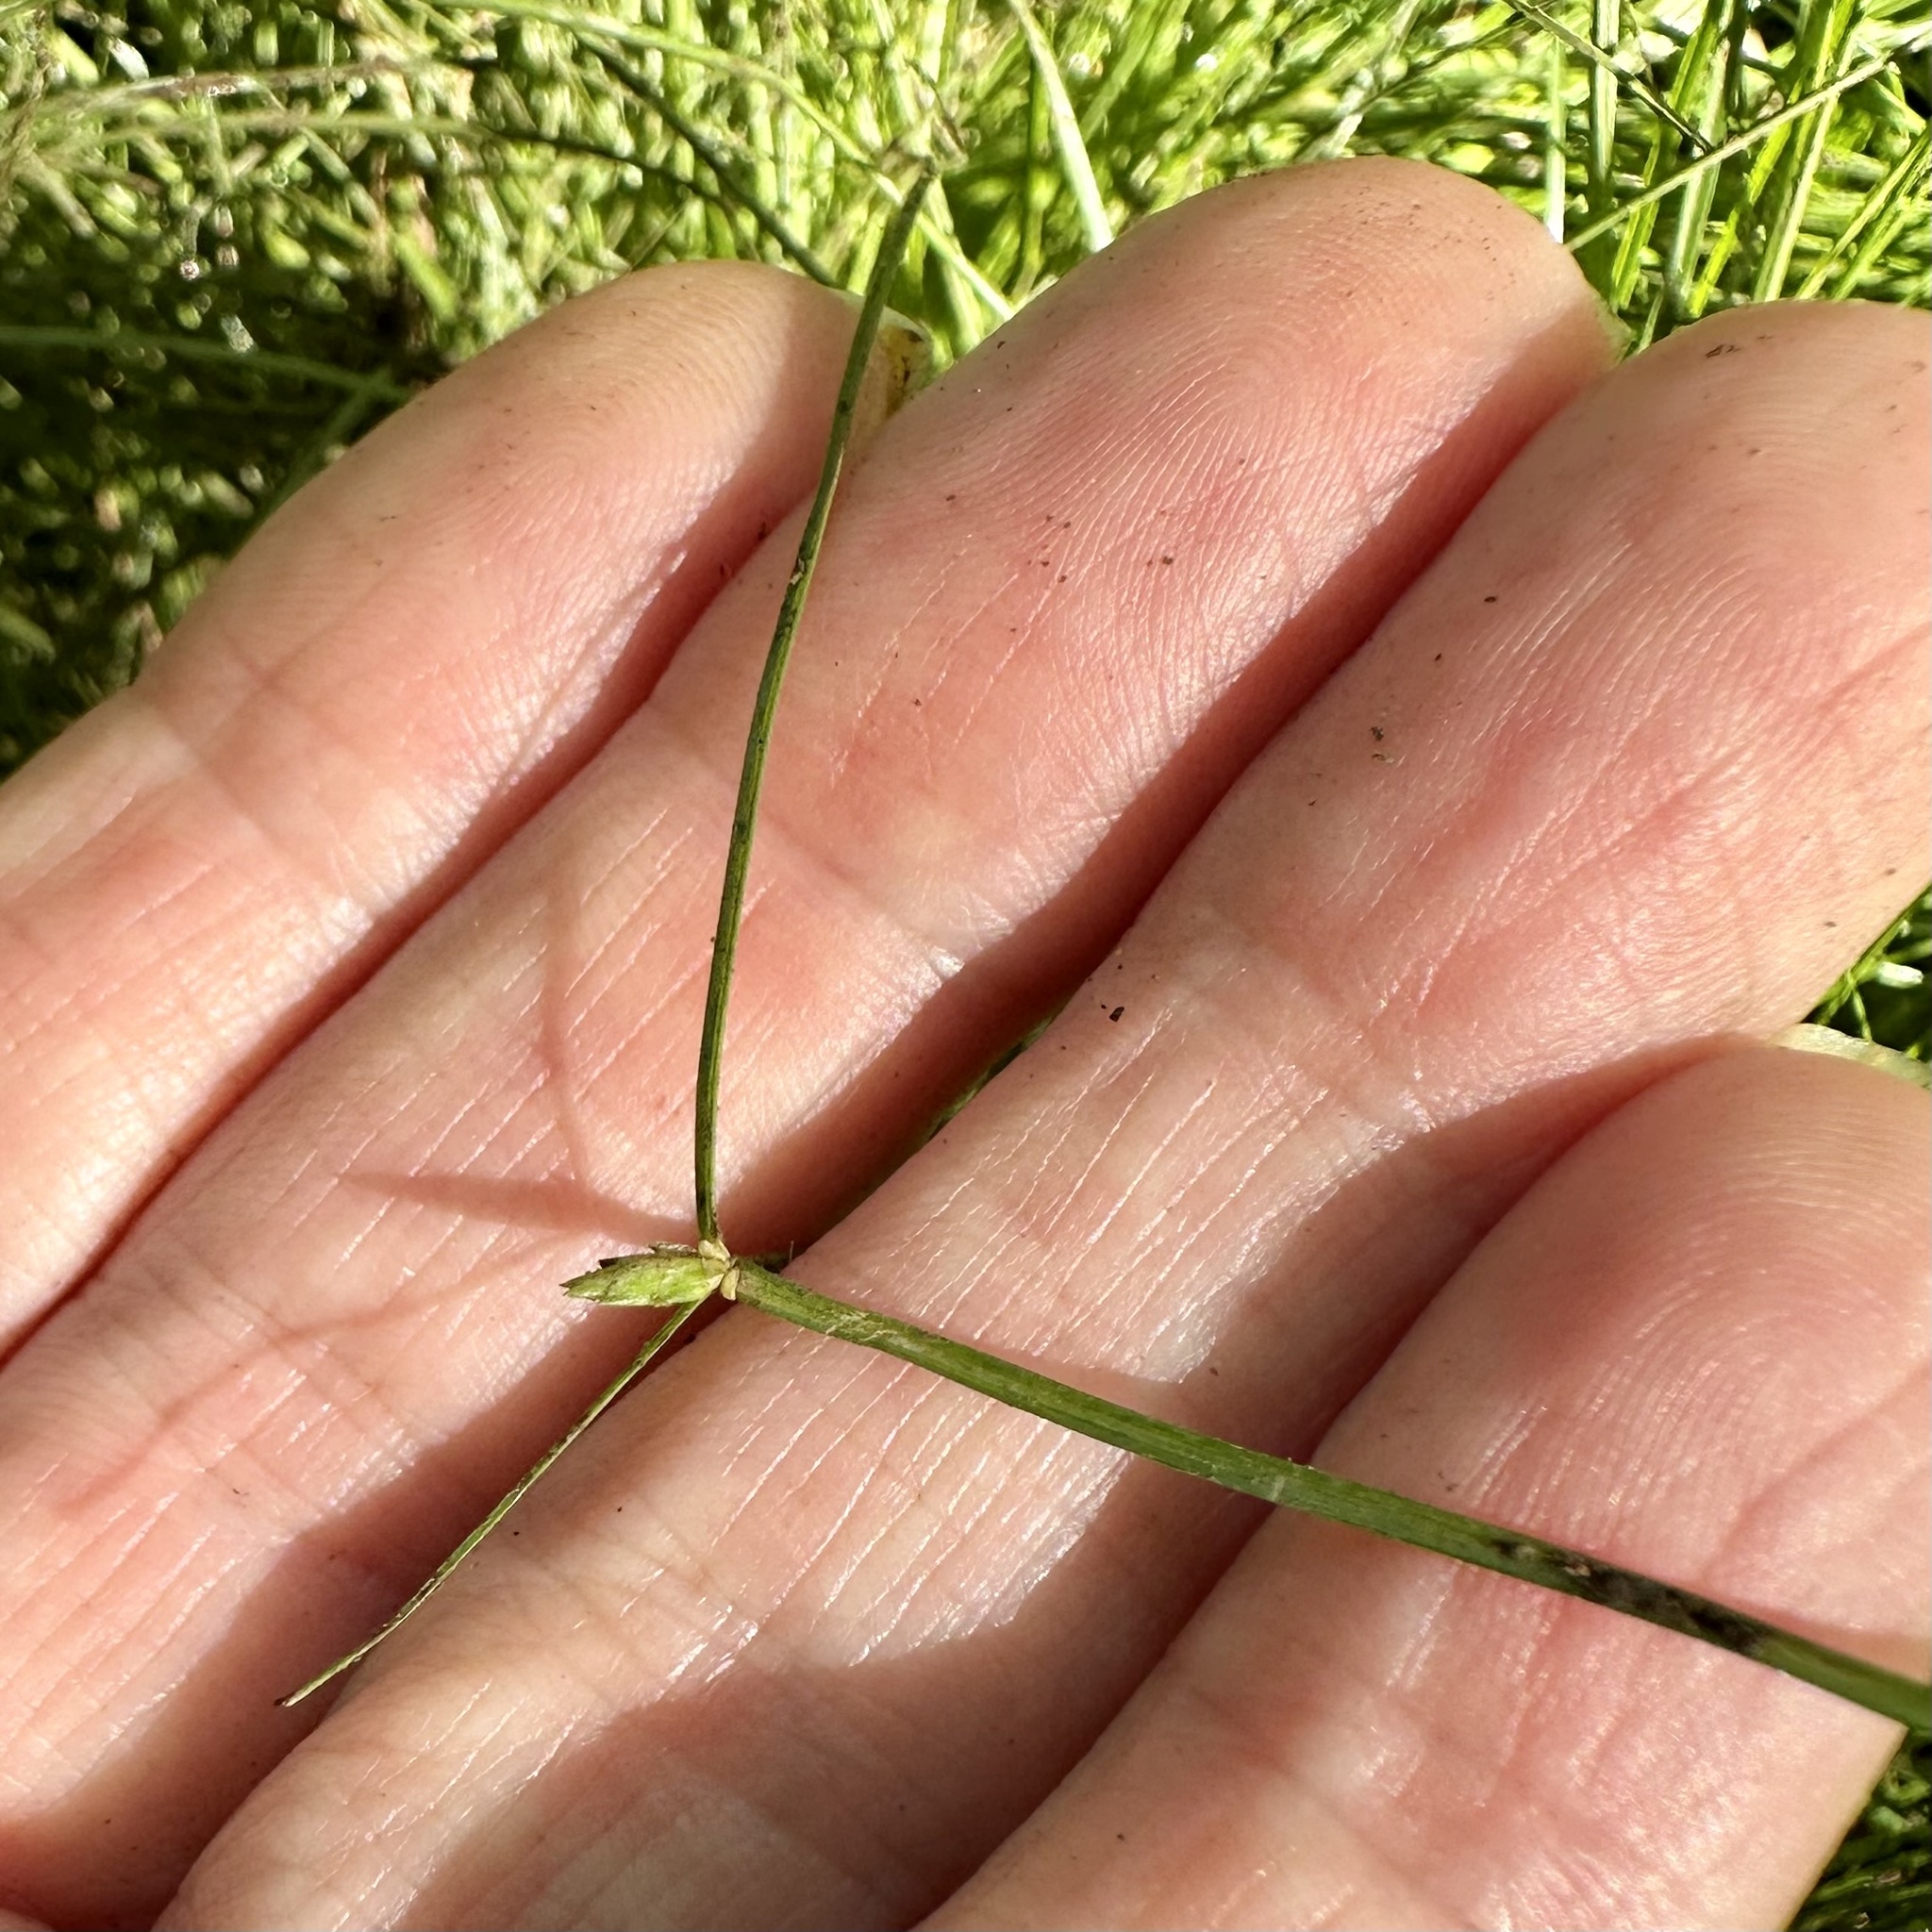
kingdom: Plantae
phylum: Tracheophyta
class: Liliopsida
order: Poales
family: Cyperaceae
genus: Cyperus
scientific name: Cyperus gracilis
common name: Slimjim flatsedge
